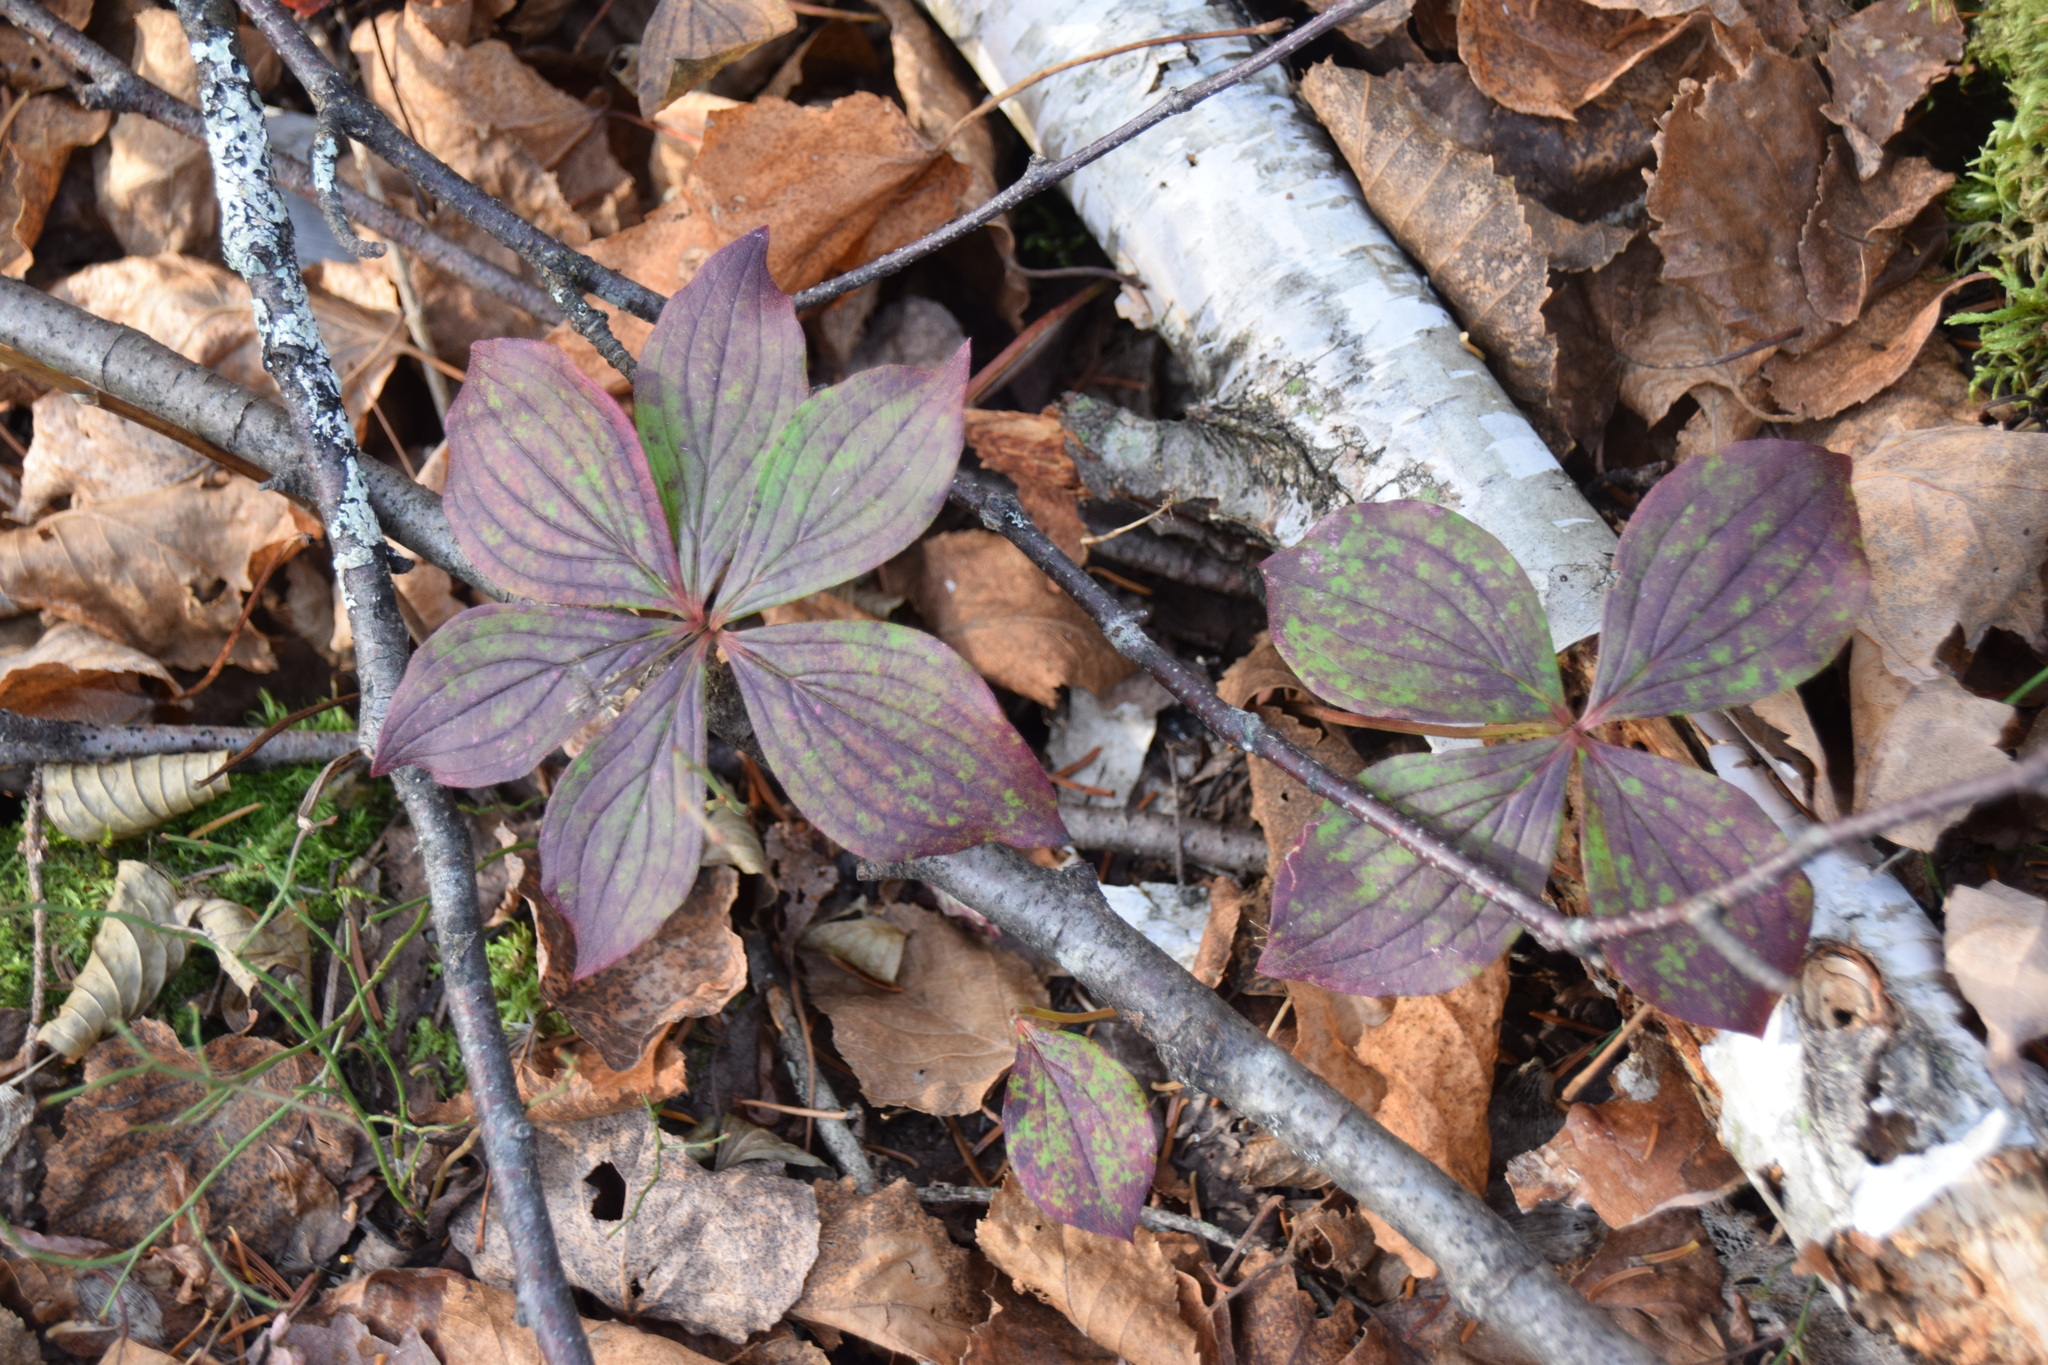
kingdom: Plantae
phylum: Tracheophyta
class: Magnoliopsida
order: Cornales
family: Cornaceae
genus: Cornus
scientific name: Cornus canadensis
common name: Creeping dogwood
